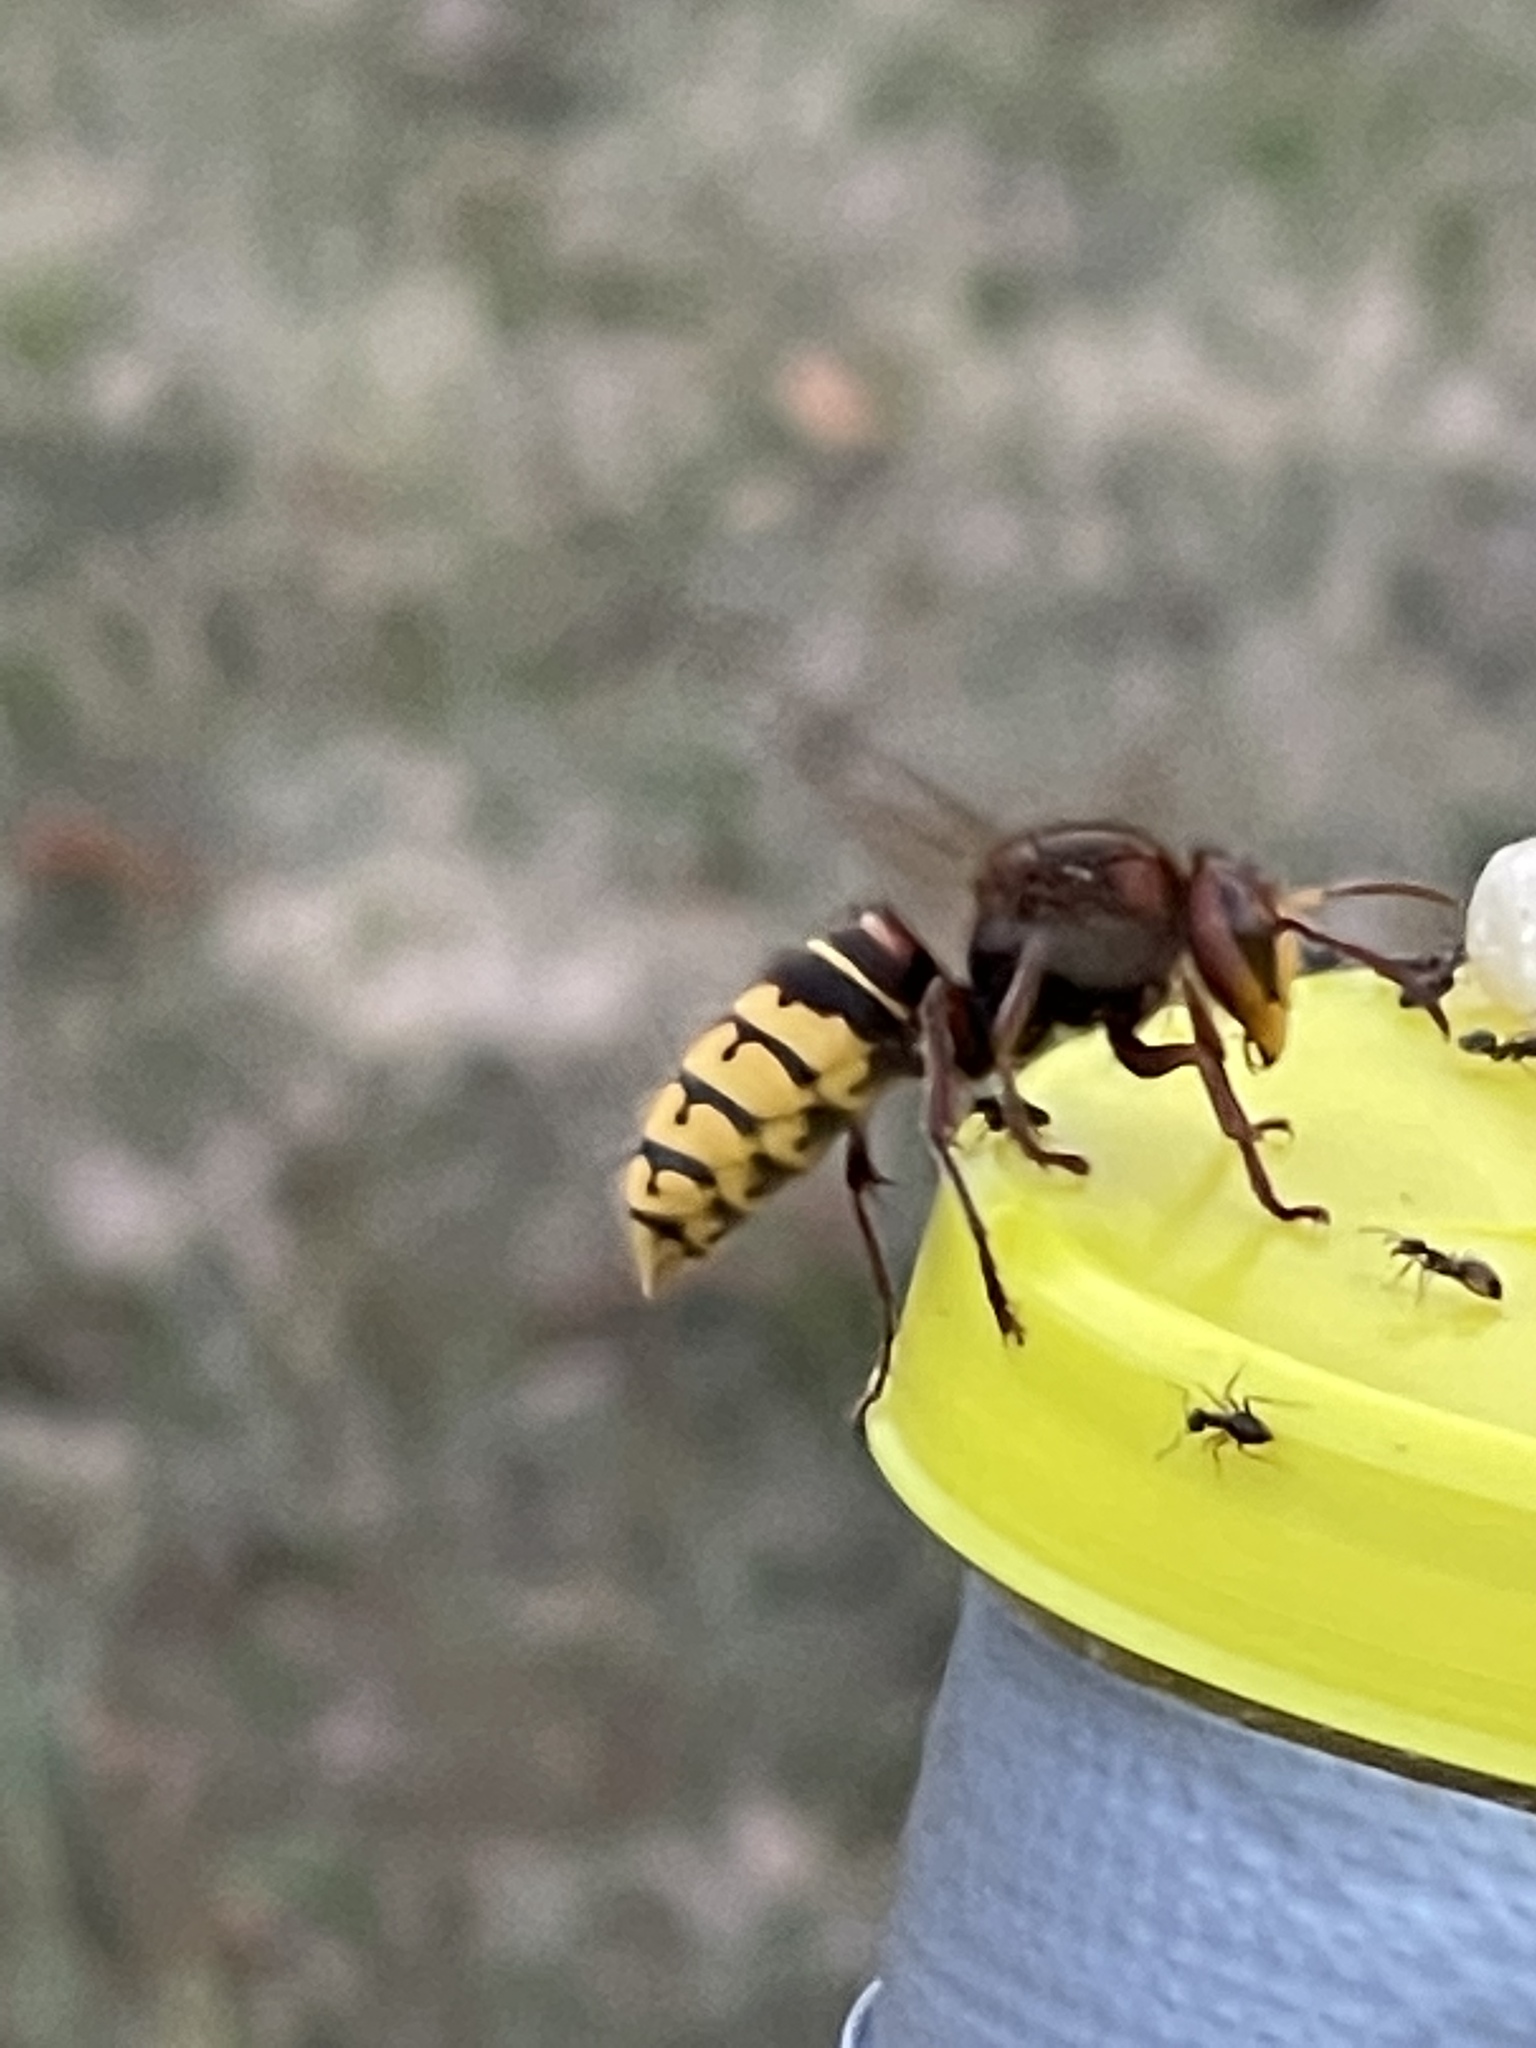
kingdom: Animalia
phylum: Arthropoda
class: Insecta
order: Hymenoptera
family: Vespidae
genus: Vespa
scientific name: Vespa crabro
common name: Hornet
